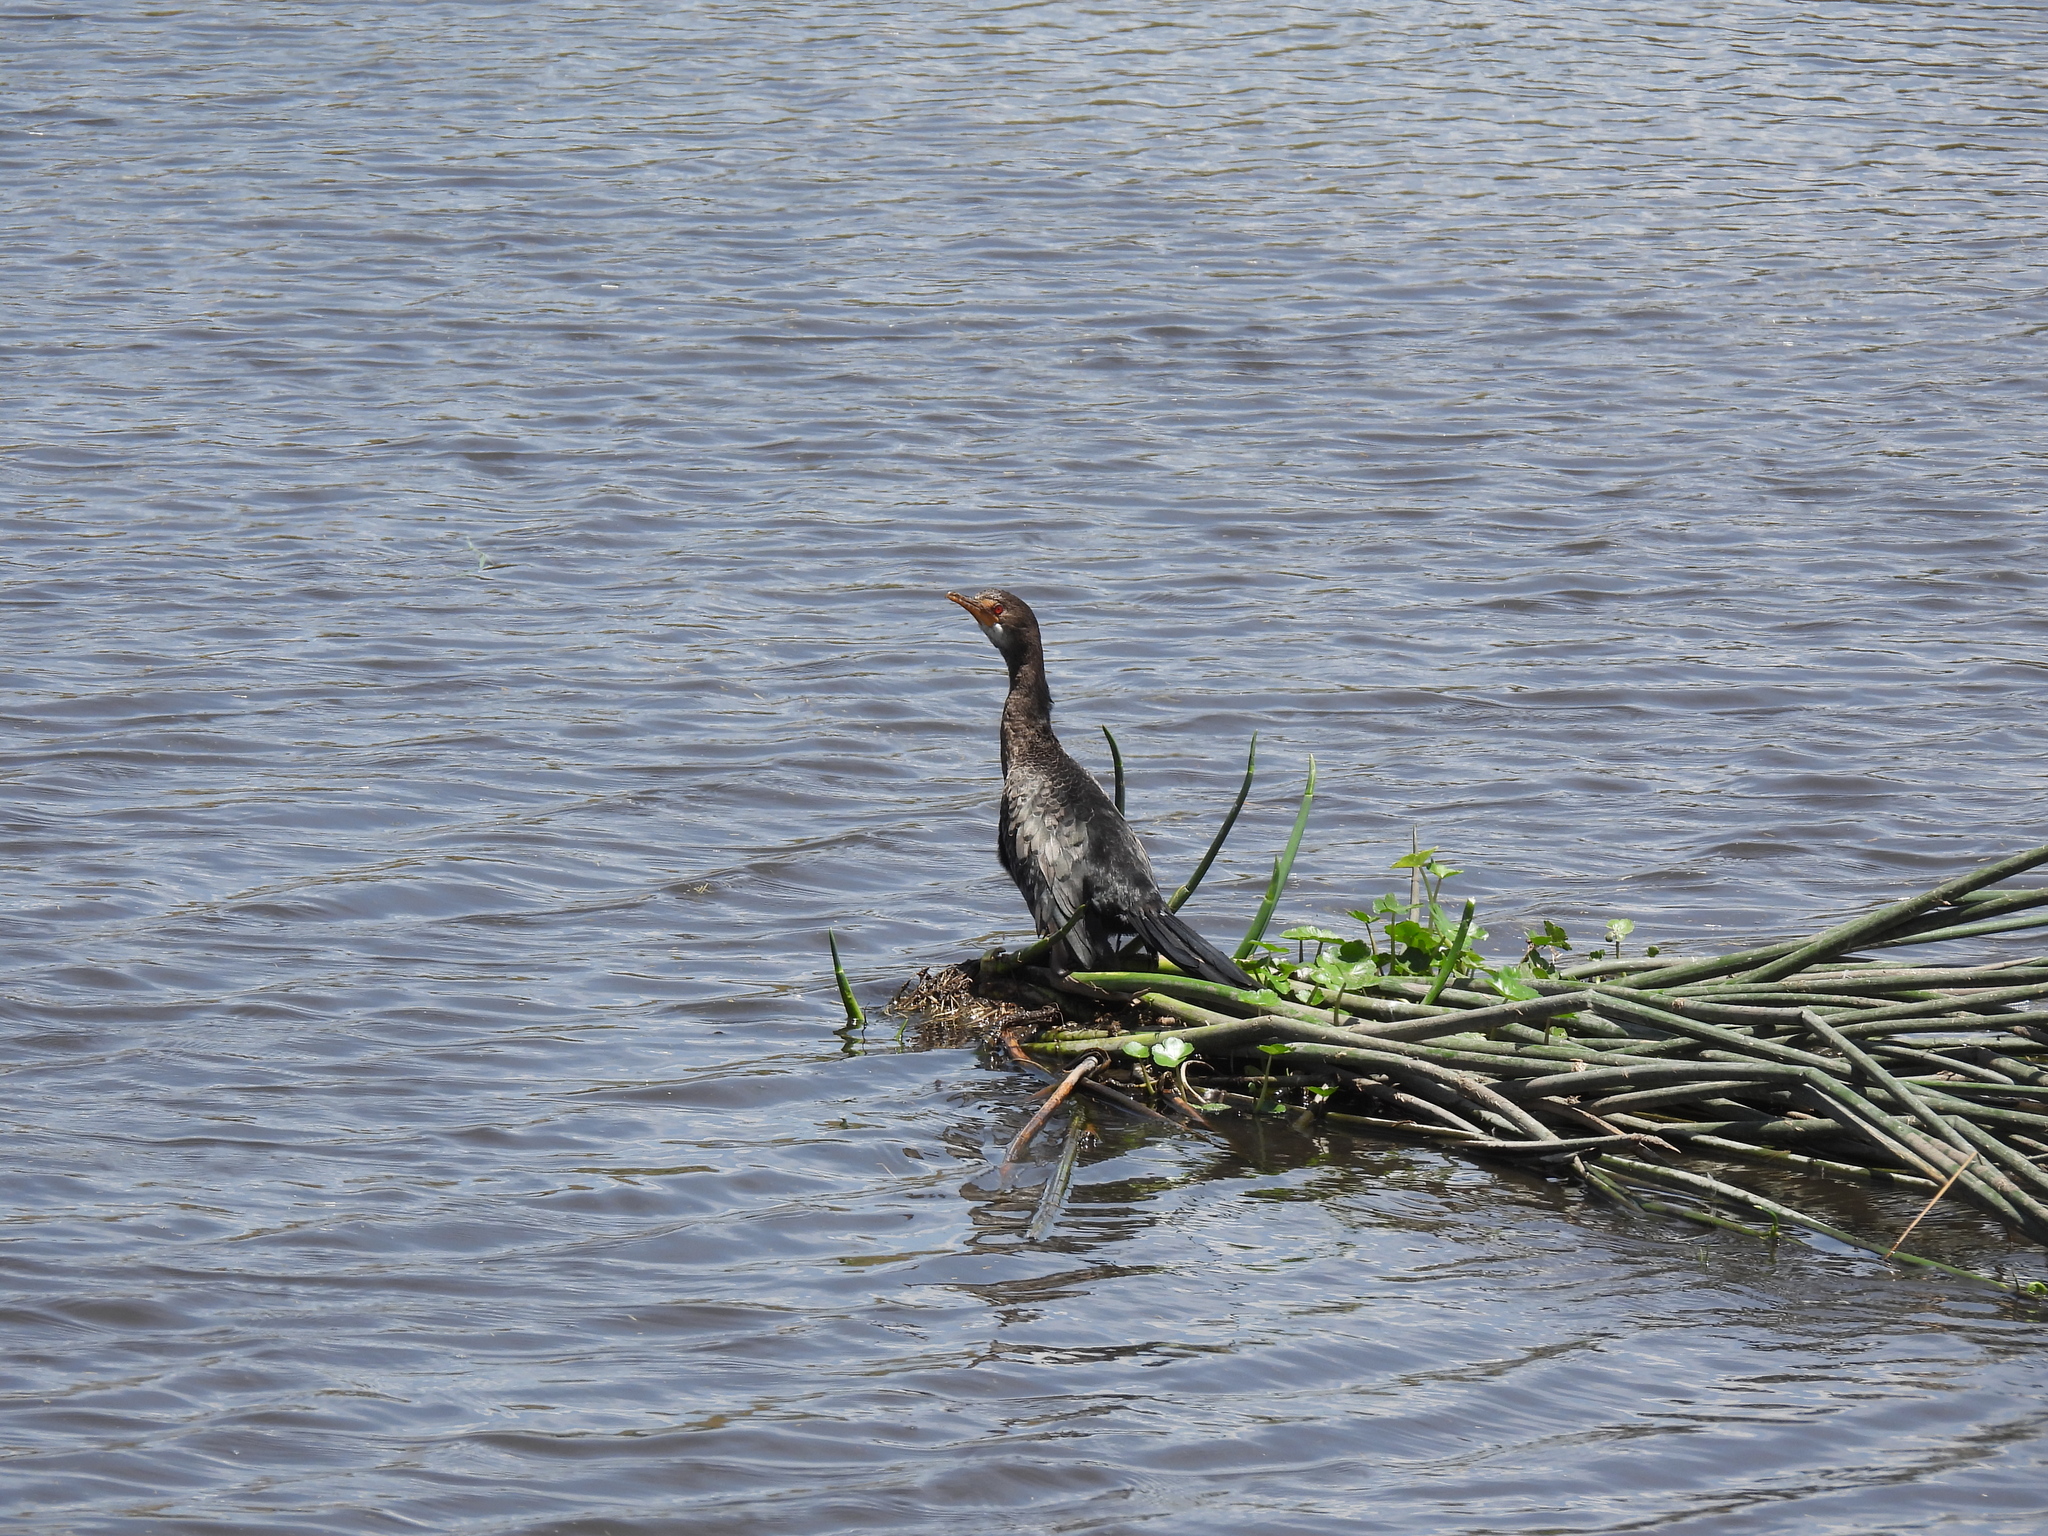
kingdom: Animalia
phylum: Chordata
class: Aves
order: Suliformes
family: Phalacrocoracidae
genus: Microcarbo
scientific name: Microcarbo africanus
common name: Long-tailed cormorant
